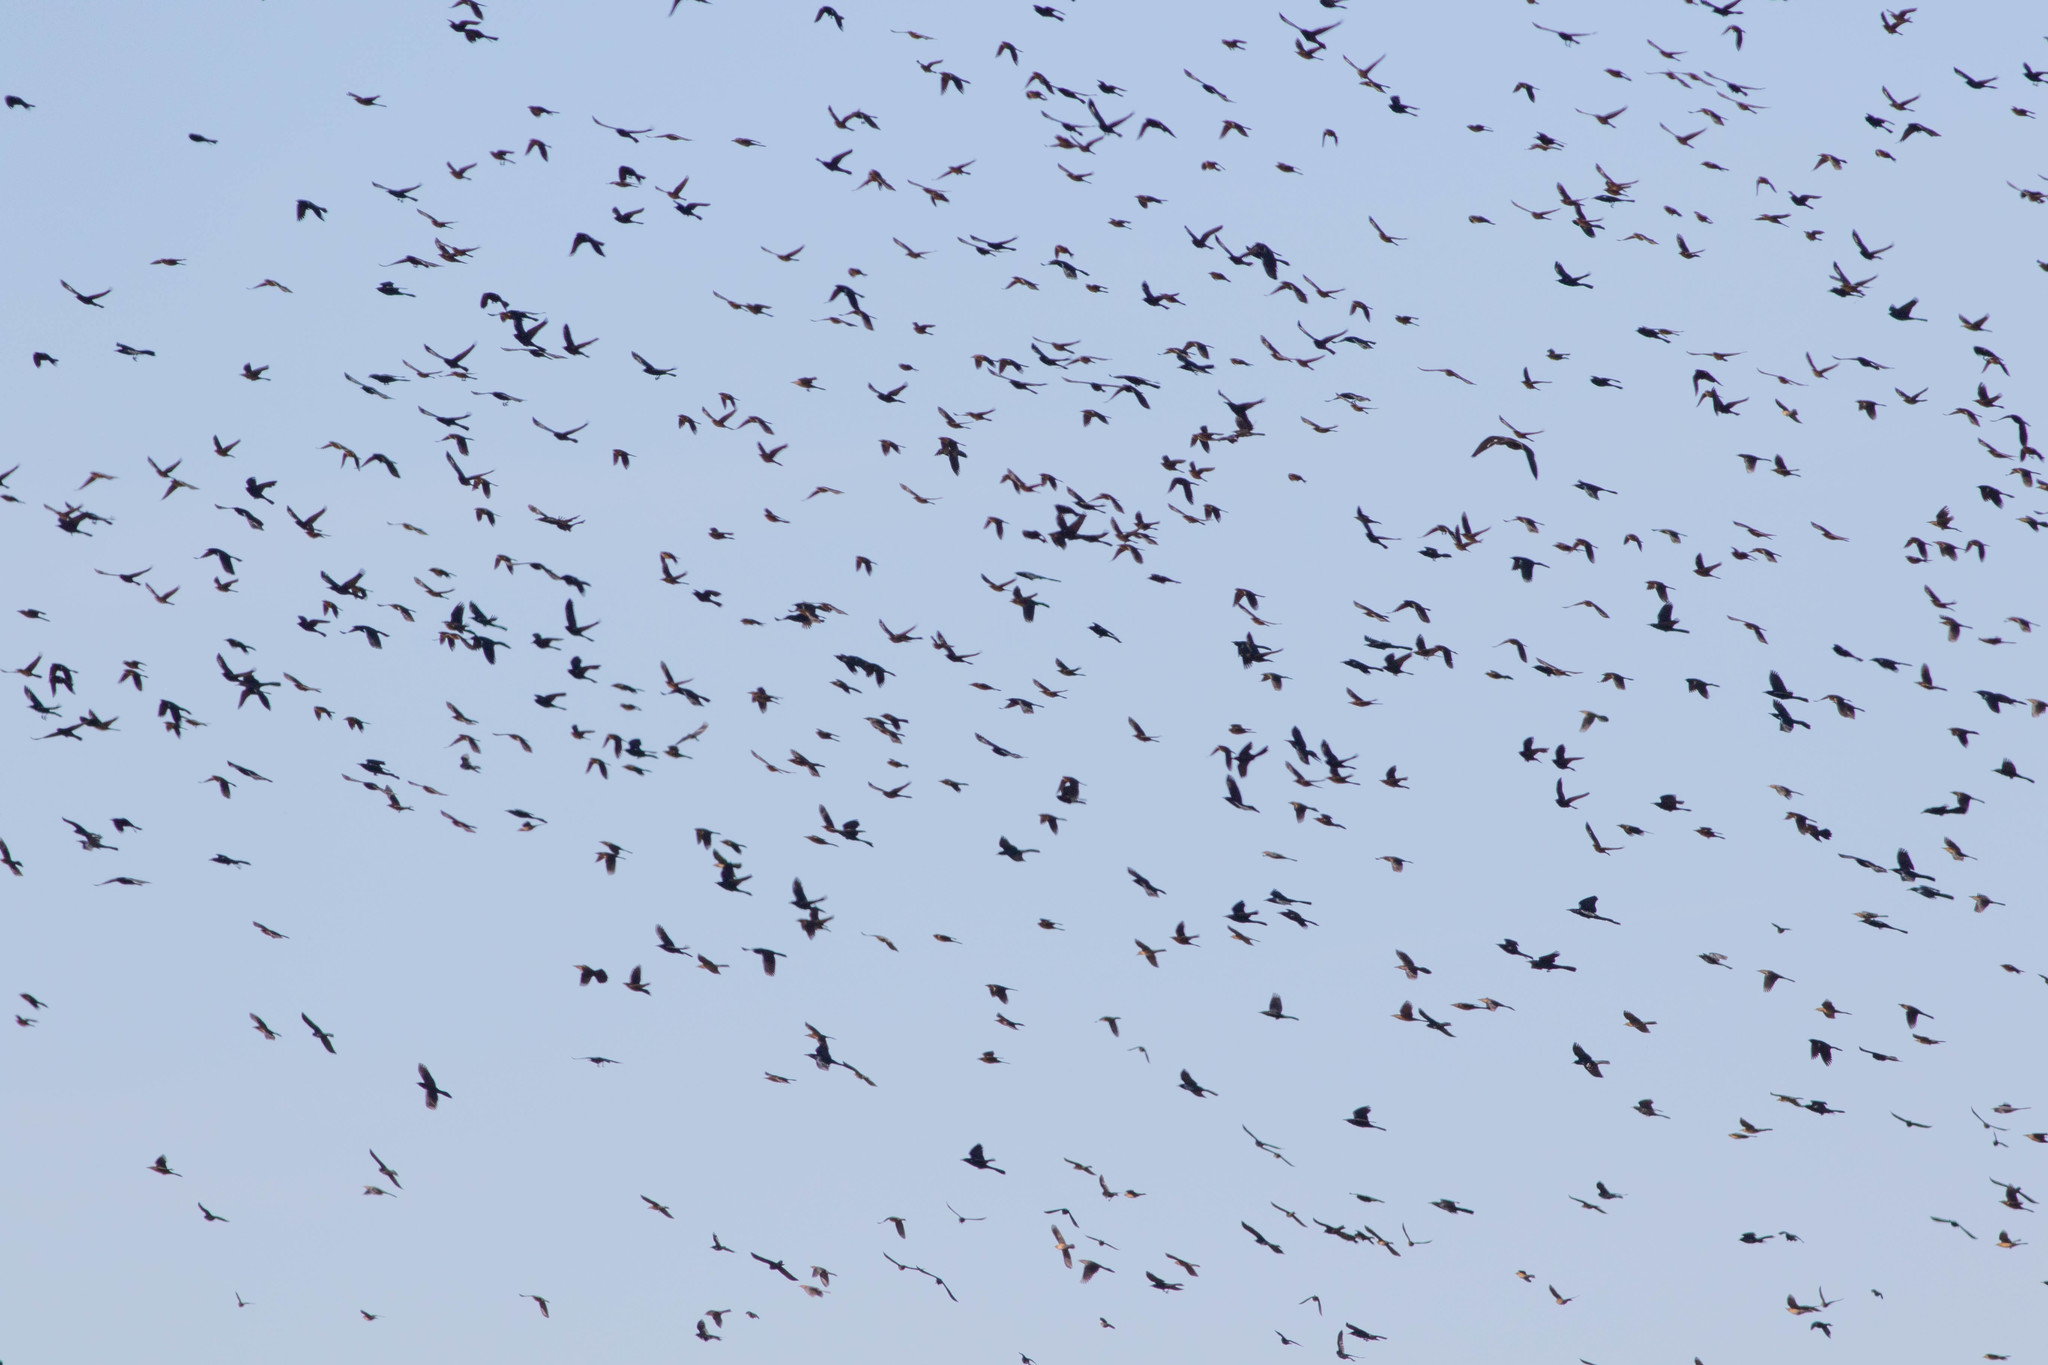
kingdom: Animalia
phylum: Chordata
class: Aves
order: Passeriformes
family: Icteridae
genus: Quiscalus
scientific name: Quiscalus
